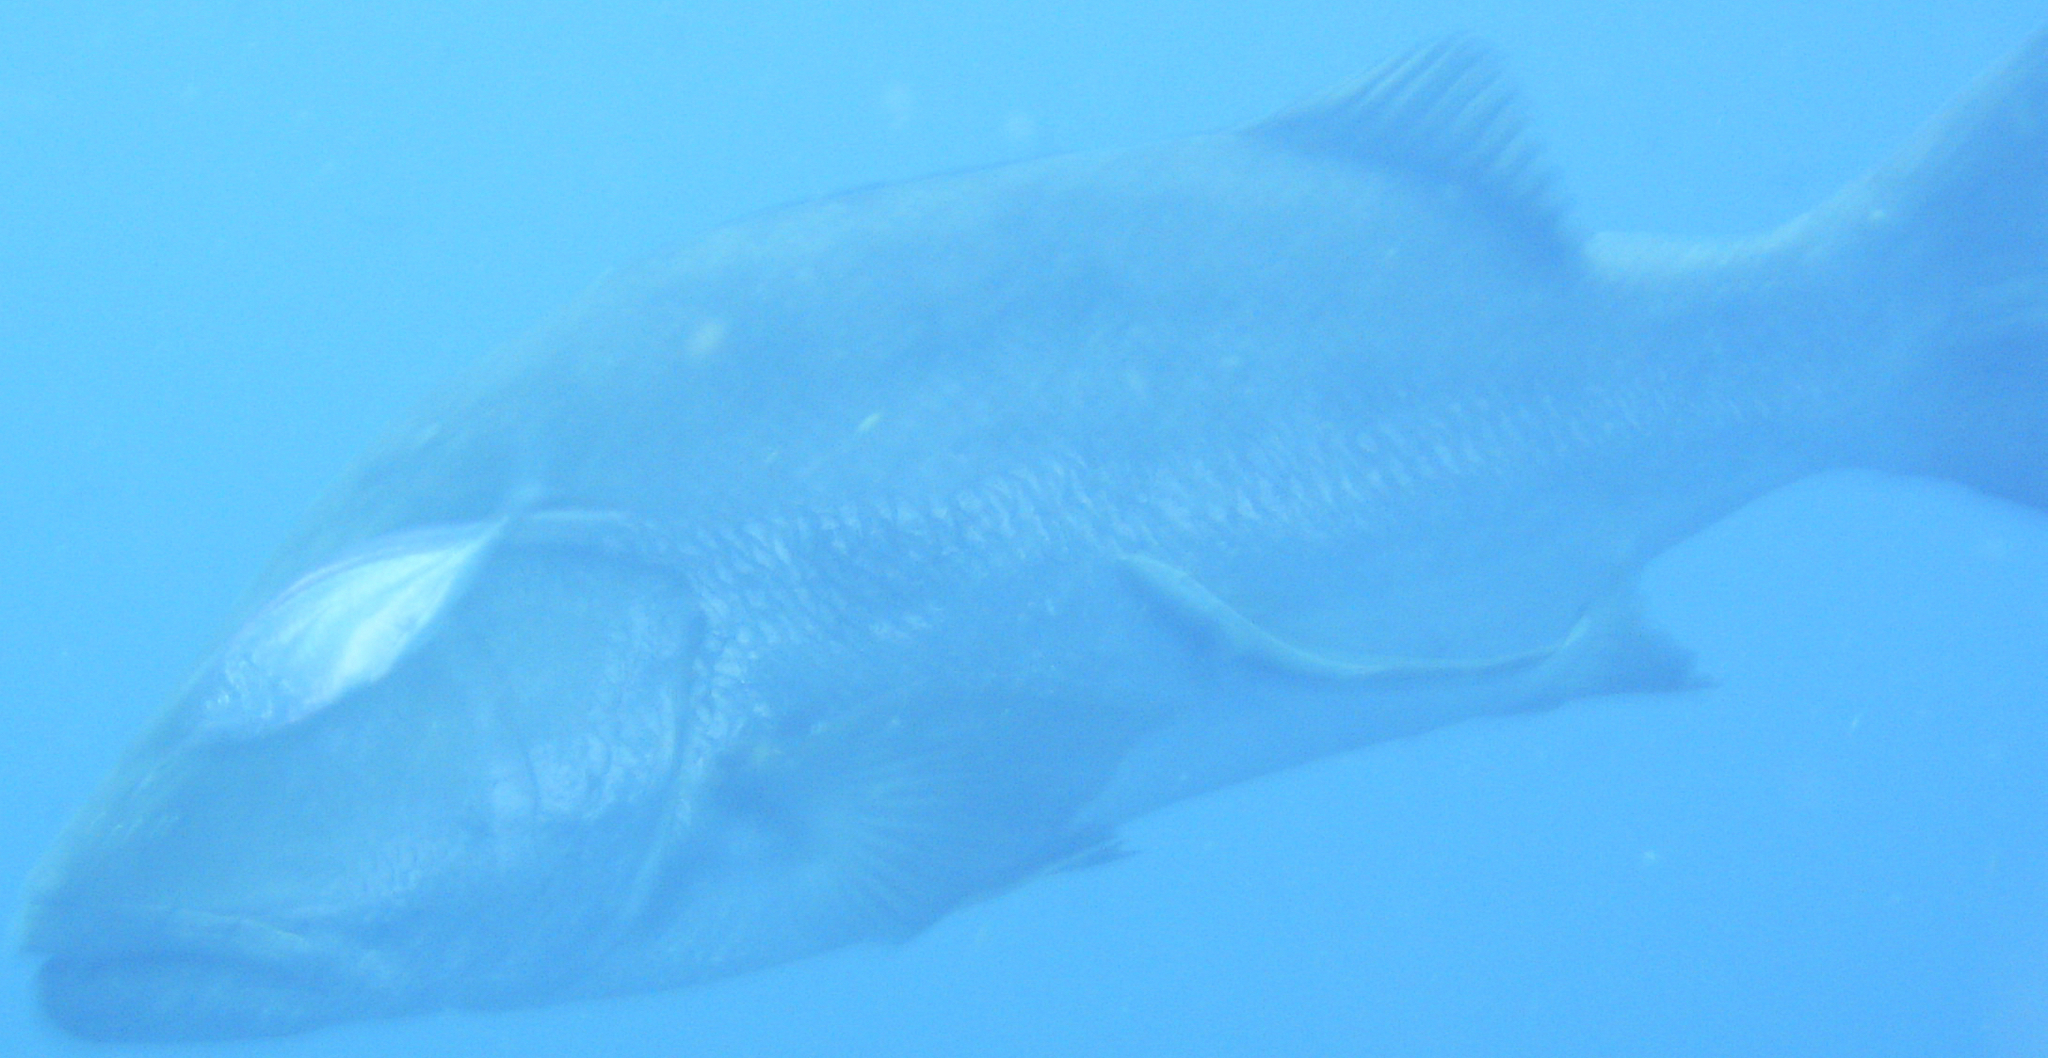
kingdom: Animalia
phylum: Chordata
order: Perciformes
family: Lutjanidae
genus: Lutjanus
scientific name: Lutjanus cyanopterus
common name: Cubera snapper
